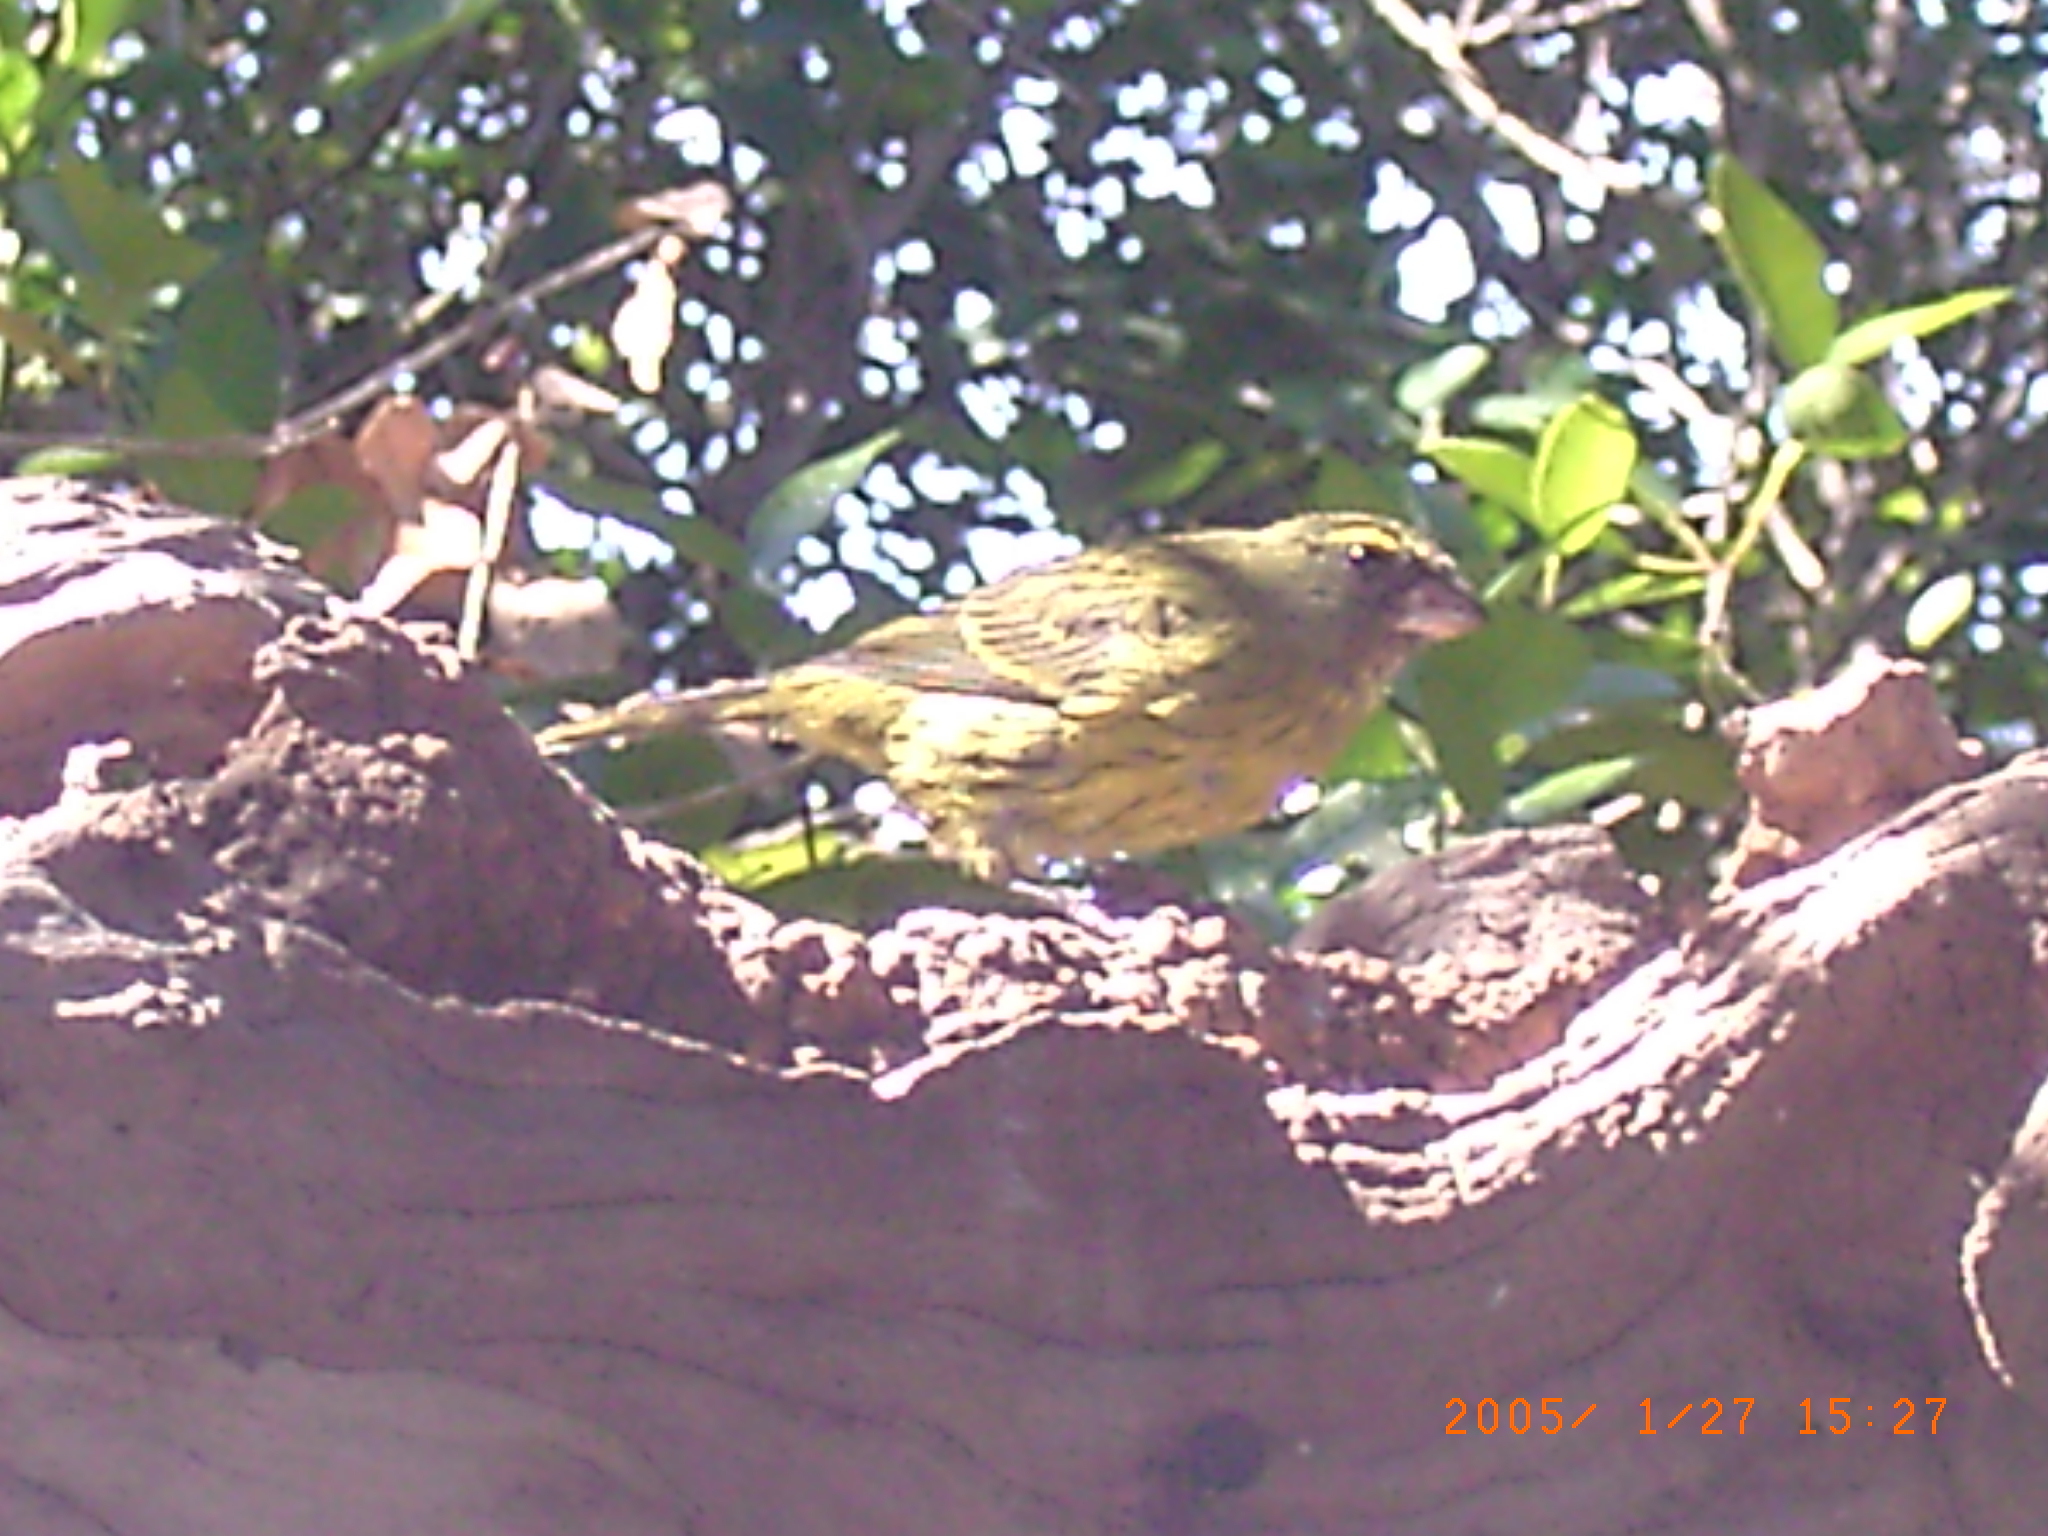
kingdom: Animalia
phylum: Chordata
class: Aves
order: Passeriformes
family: Fringillidae
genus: Crithagra
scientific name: Crithagra scotops
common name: Forest canary
